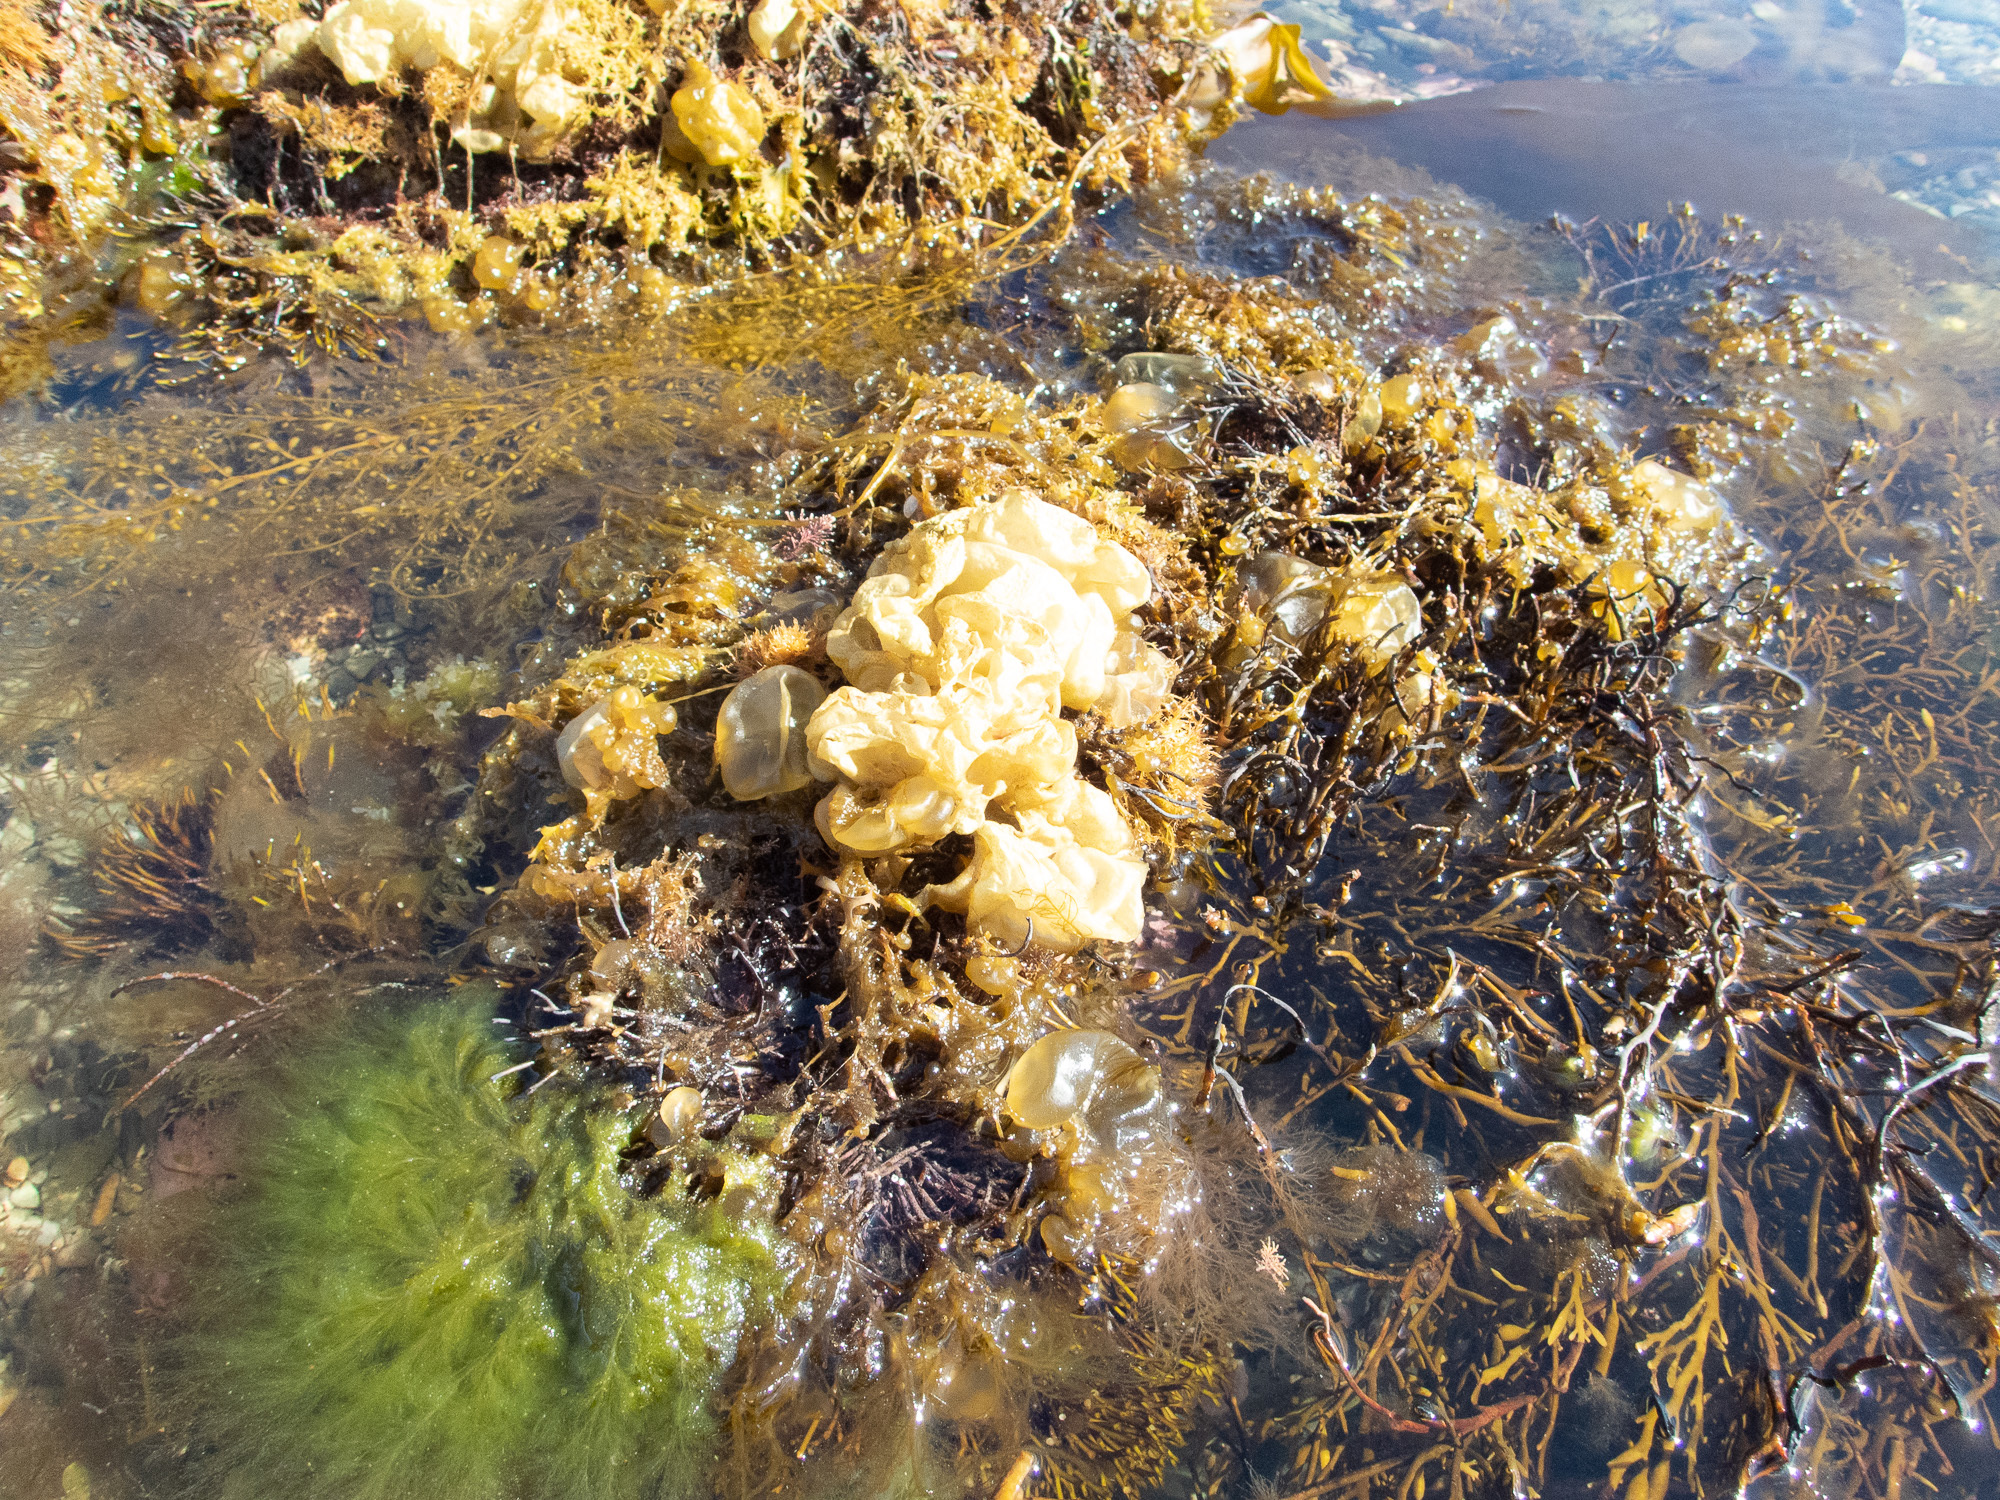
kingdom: Chromista
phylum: Ochrophyta
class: Phaeophyceae
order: Scytosiphonales
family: Scytosiphonaceae
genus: Colpomenia
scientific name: Colpomenia peregrina
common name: Oyster thief
